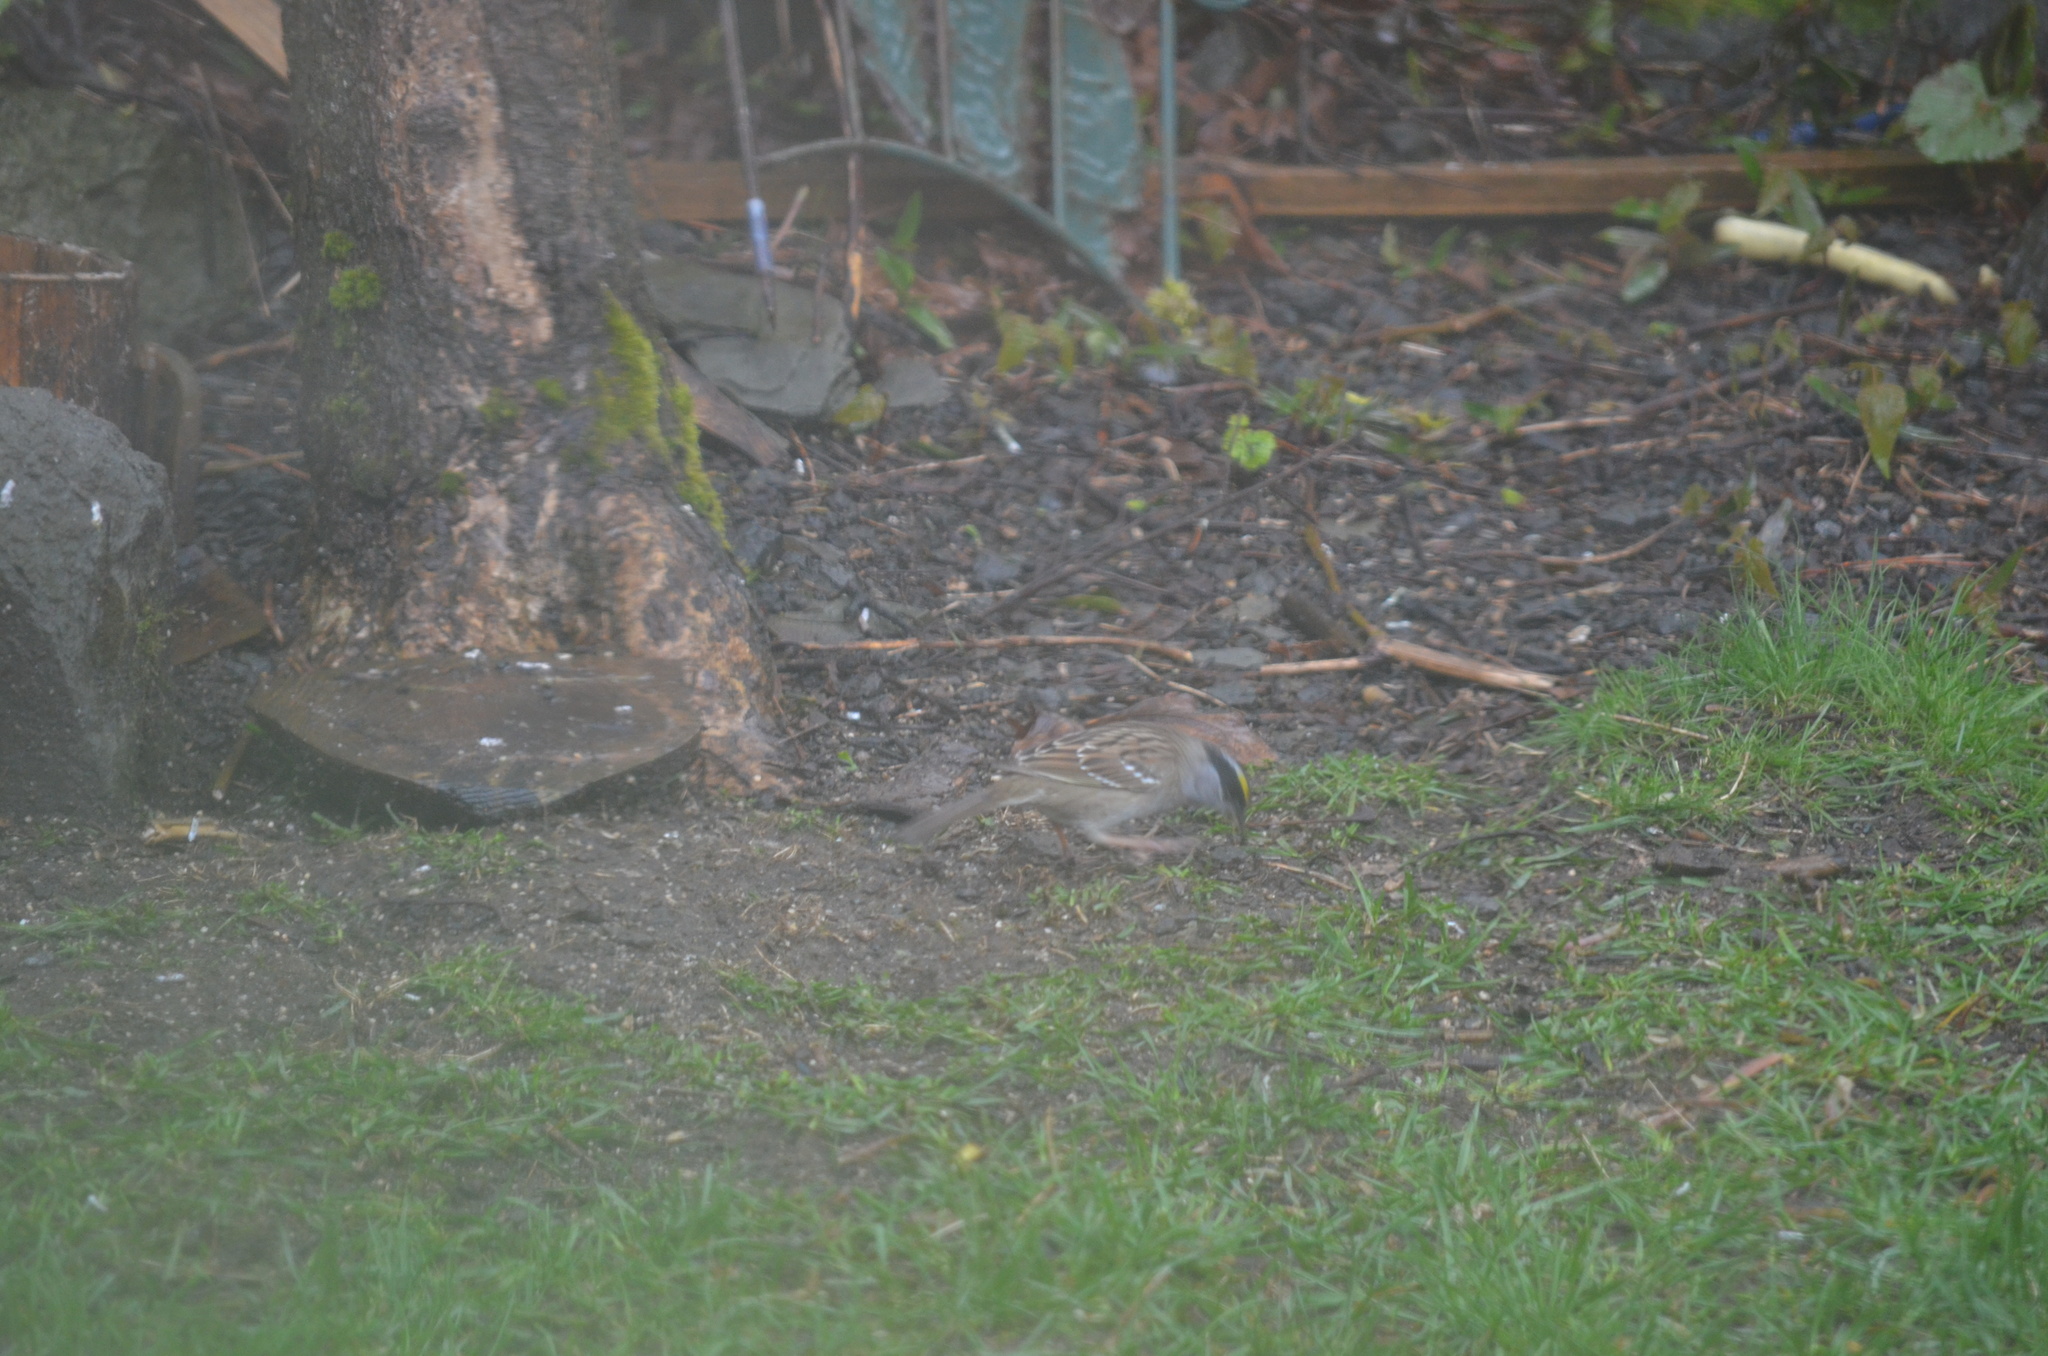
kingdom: Animalia
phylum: Chordata
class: Aves
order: Passeriformes
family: Passerellidae
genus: Zonotrichia
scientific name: Zonotrichia atricapilla
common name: Golden-crowned sparrow
